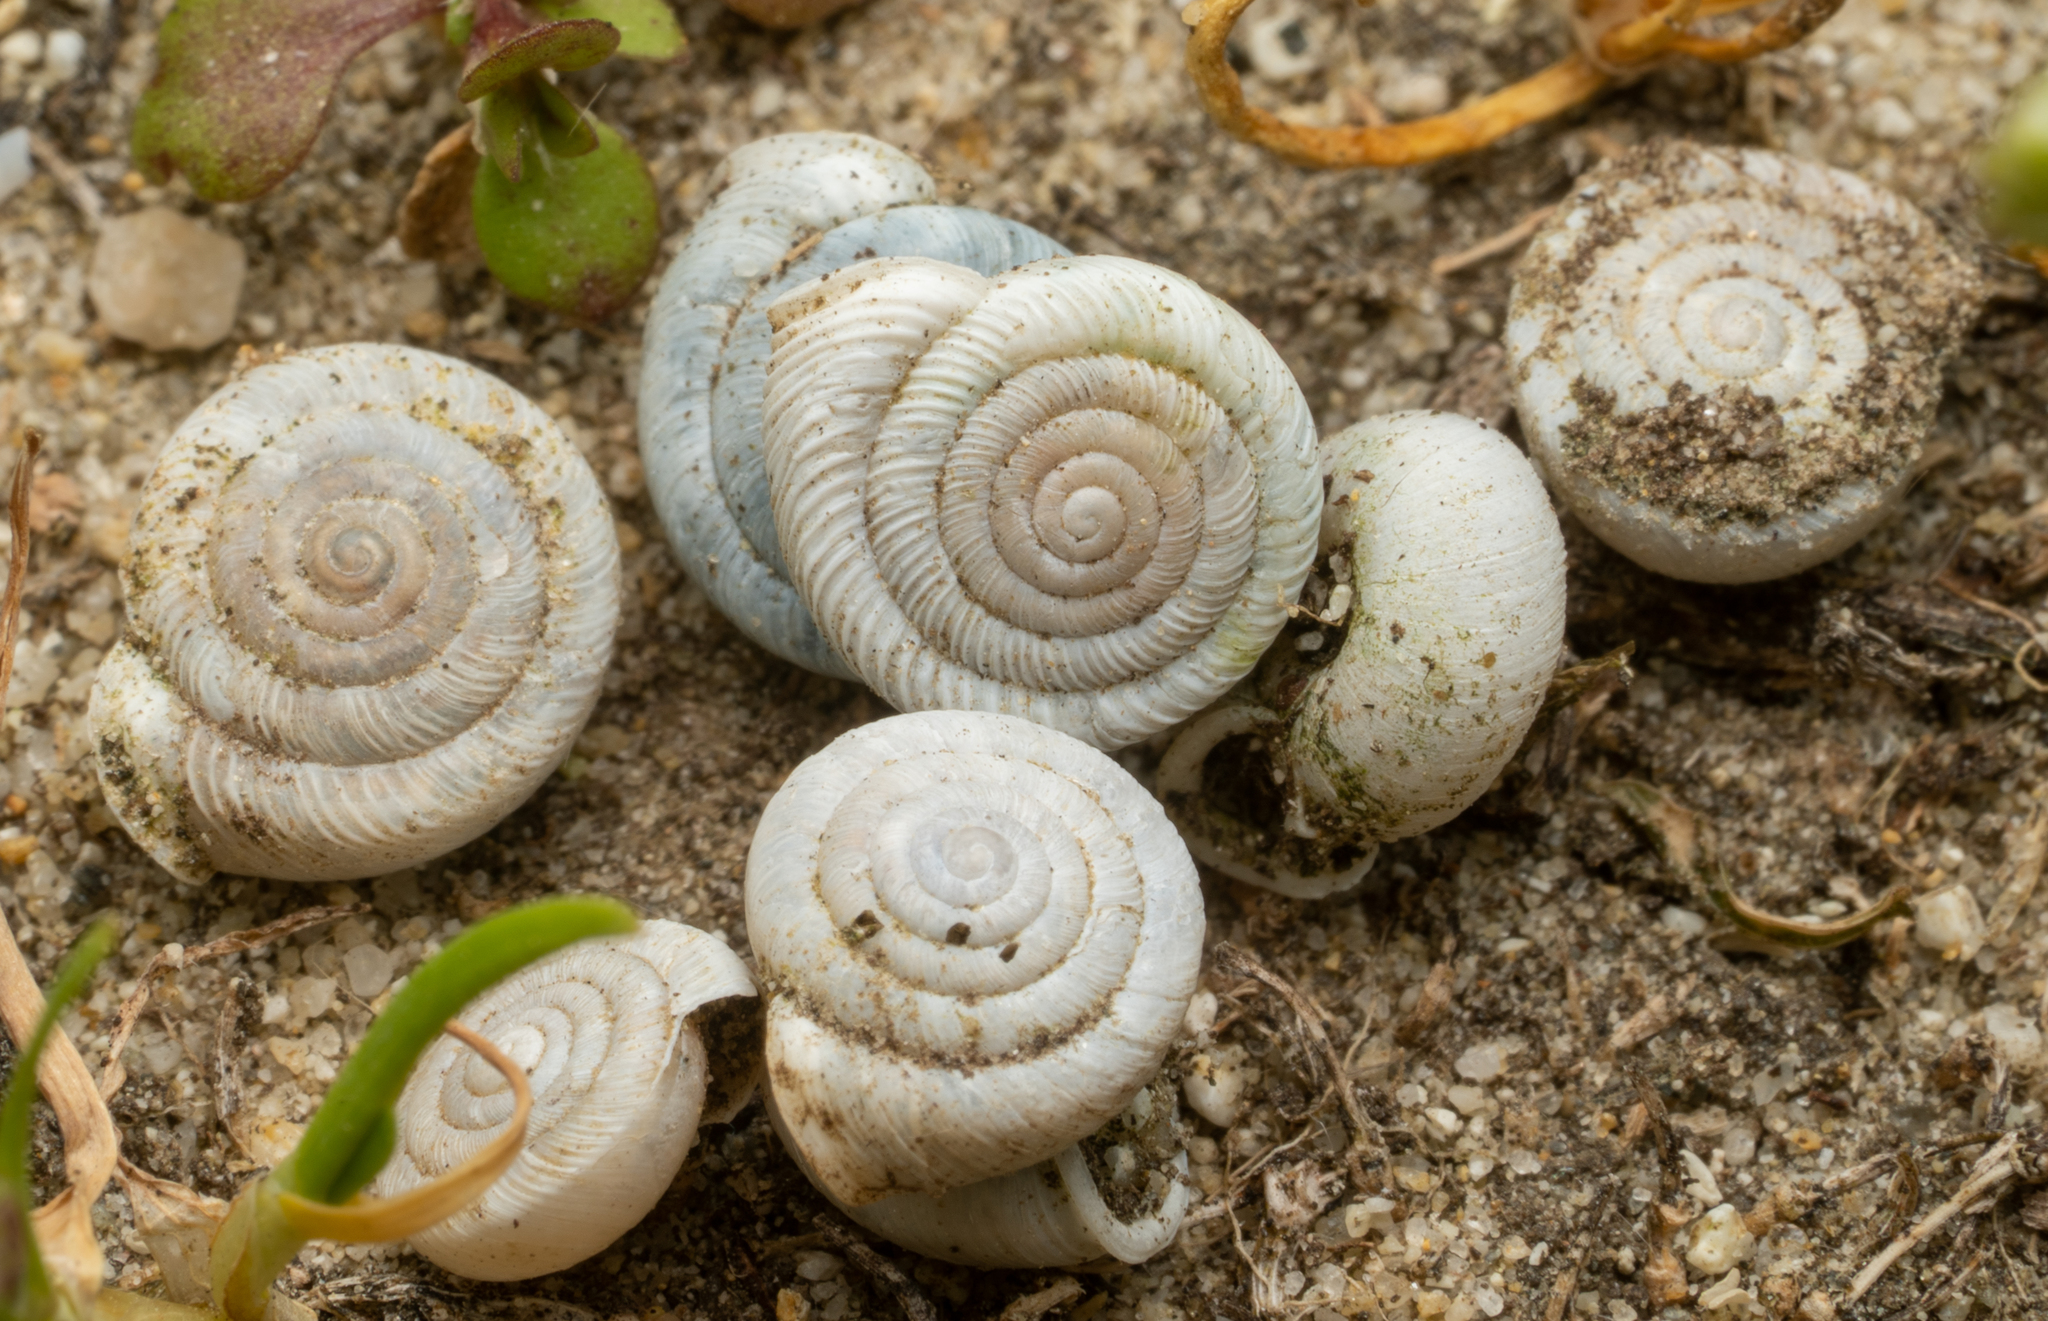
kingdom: Animalia
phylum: Mollusca
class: Gastropoda
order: Stylommatophora
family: Polygyridae
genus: Polygyra
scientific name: Polygyra cereolus
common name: Southern flatcone snail
